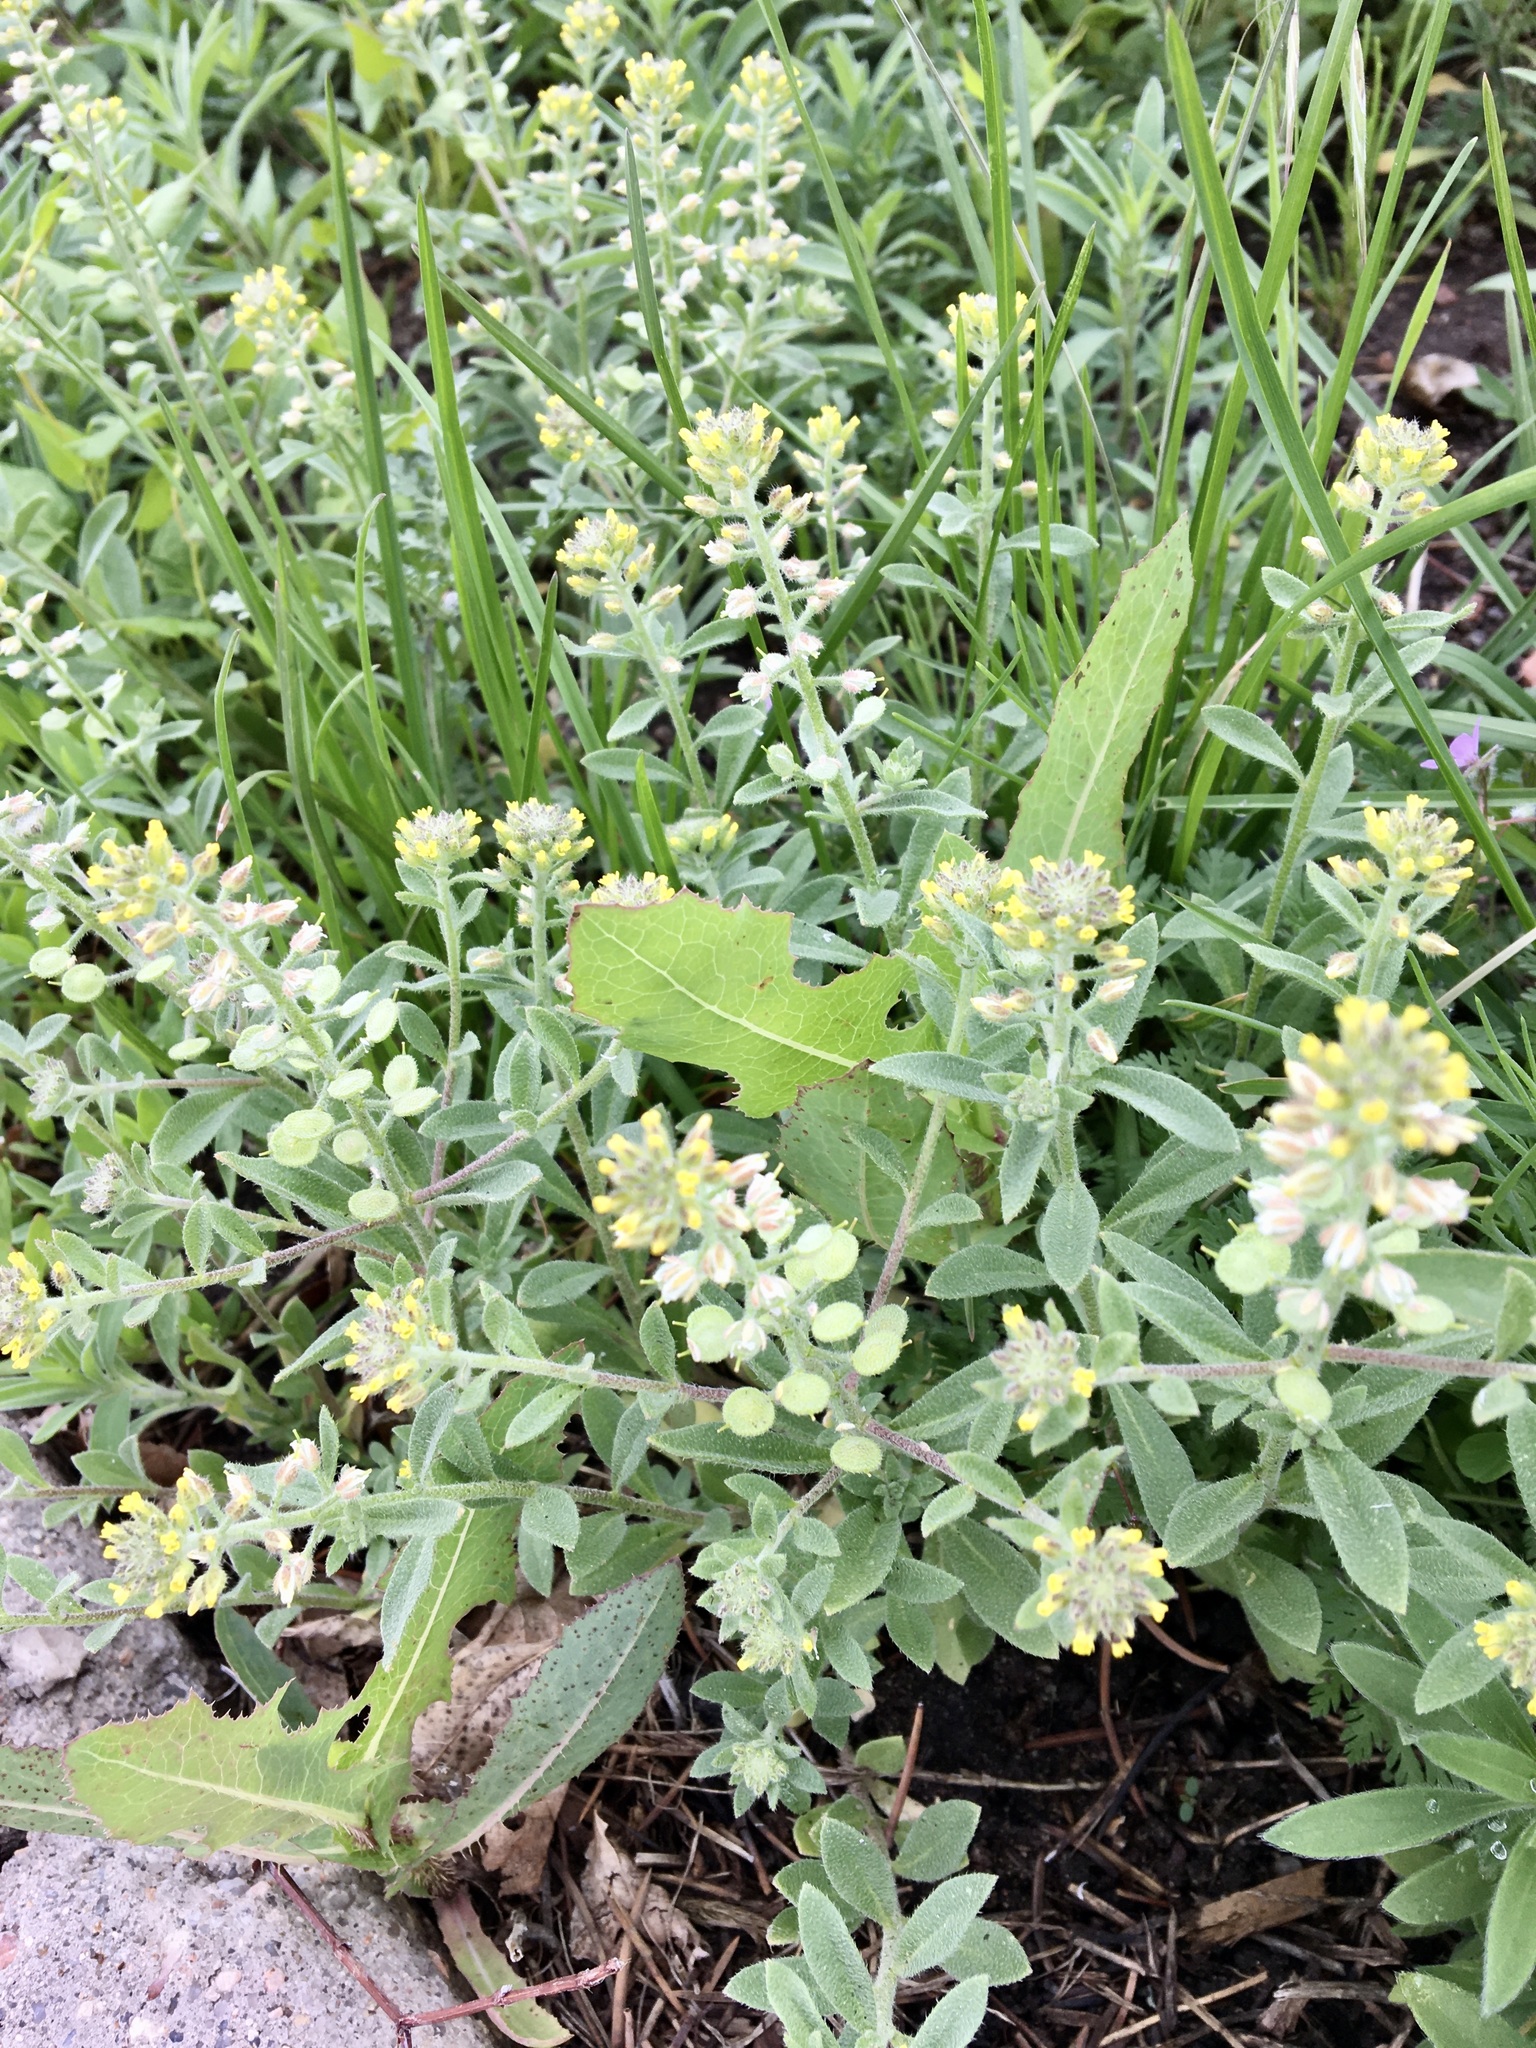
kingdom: Plantae
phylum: Tracheophyta
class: Magnoliopsida
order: Brassicales
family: Brassicaceae
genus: Alyssum
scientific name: Alyssum simplex
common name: Alyssum
